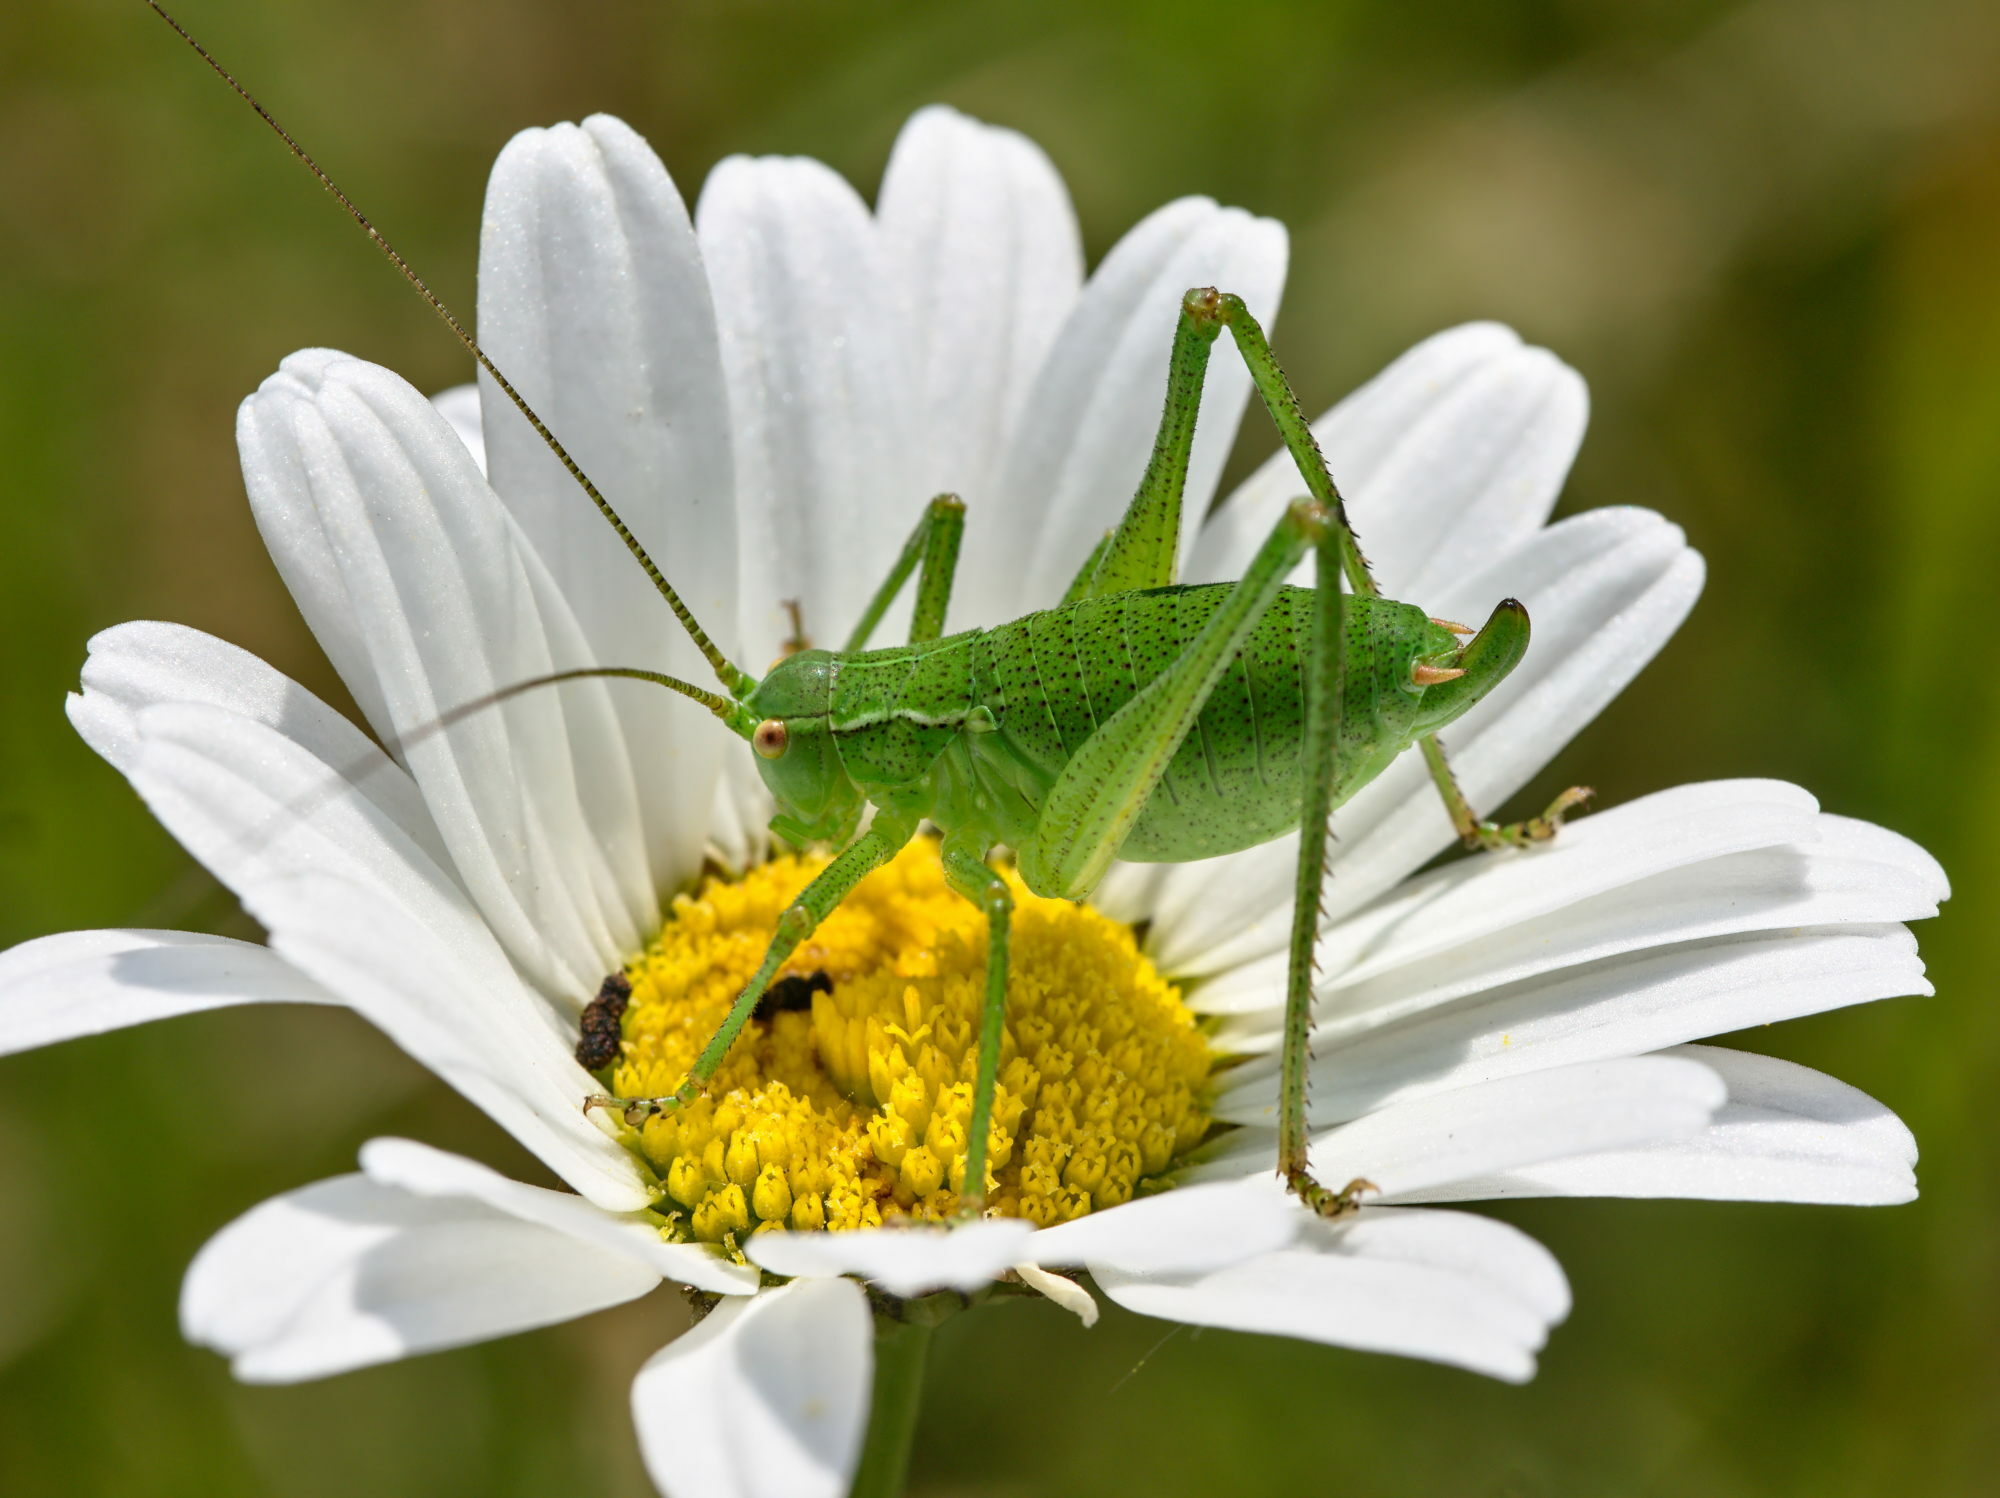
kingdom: Animalia
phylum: Arthropoda
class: Insecta
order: Orthoptera
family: Tettigoniidae
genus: Barbitistes
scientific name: Barbitistes serricauda
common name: Saw-tailed bush-cricket
